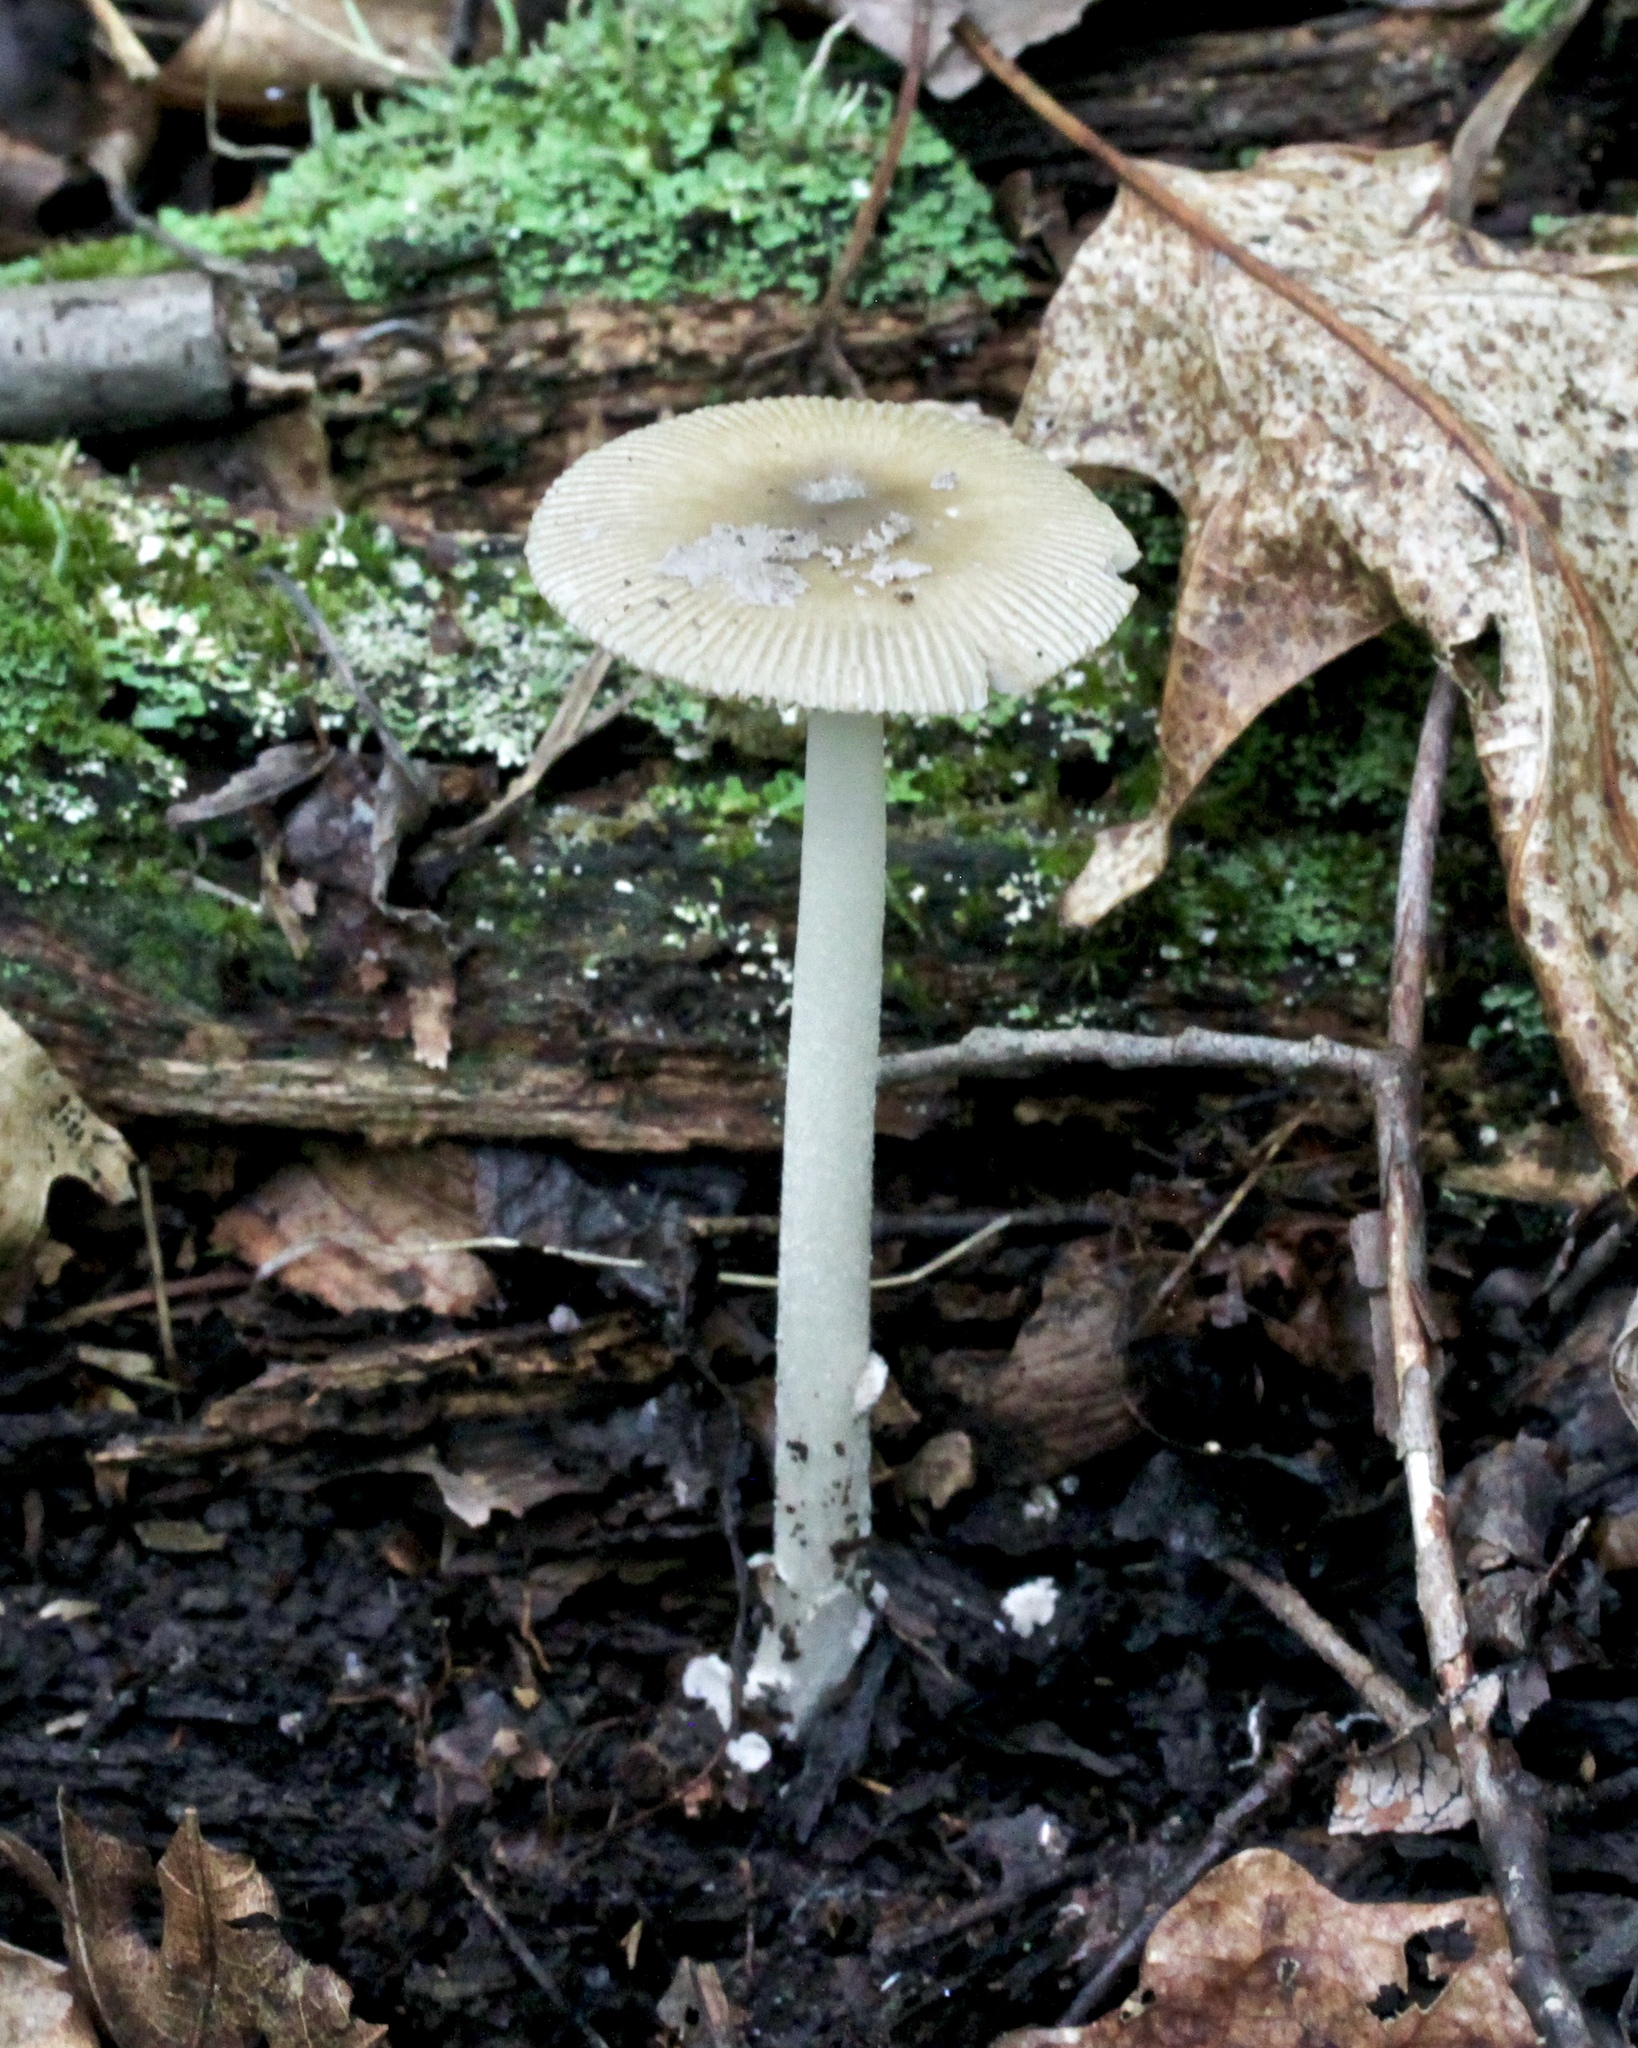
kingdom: Fungi
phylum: Basidiomycota
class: Agaricomycetes
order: Agaricales
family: Amanitaceae
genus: Amanita
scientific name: Amanita rhacopus
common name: Shaggy legged ringless amanita
